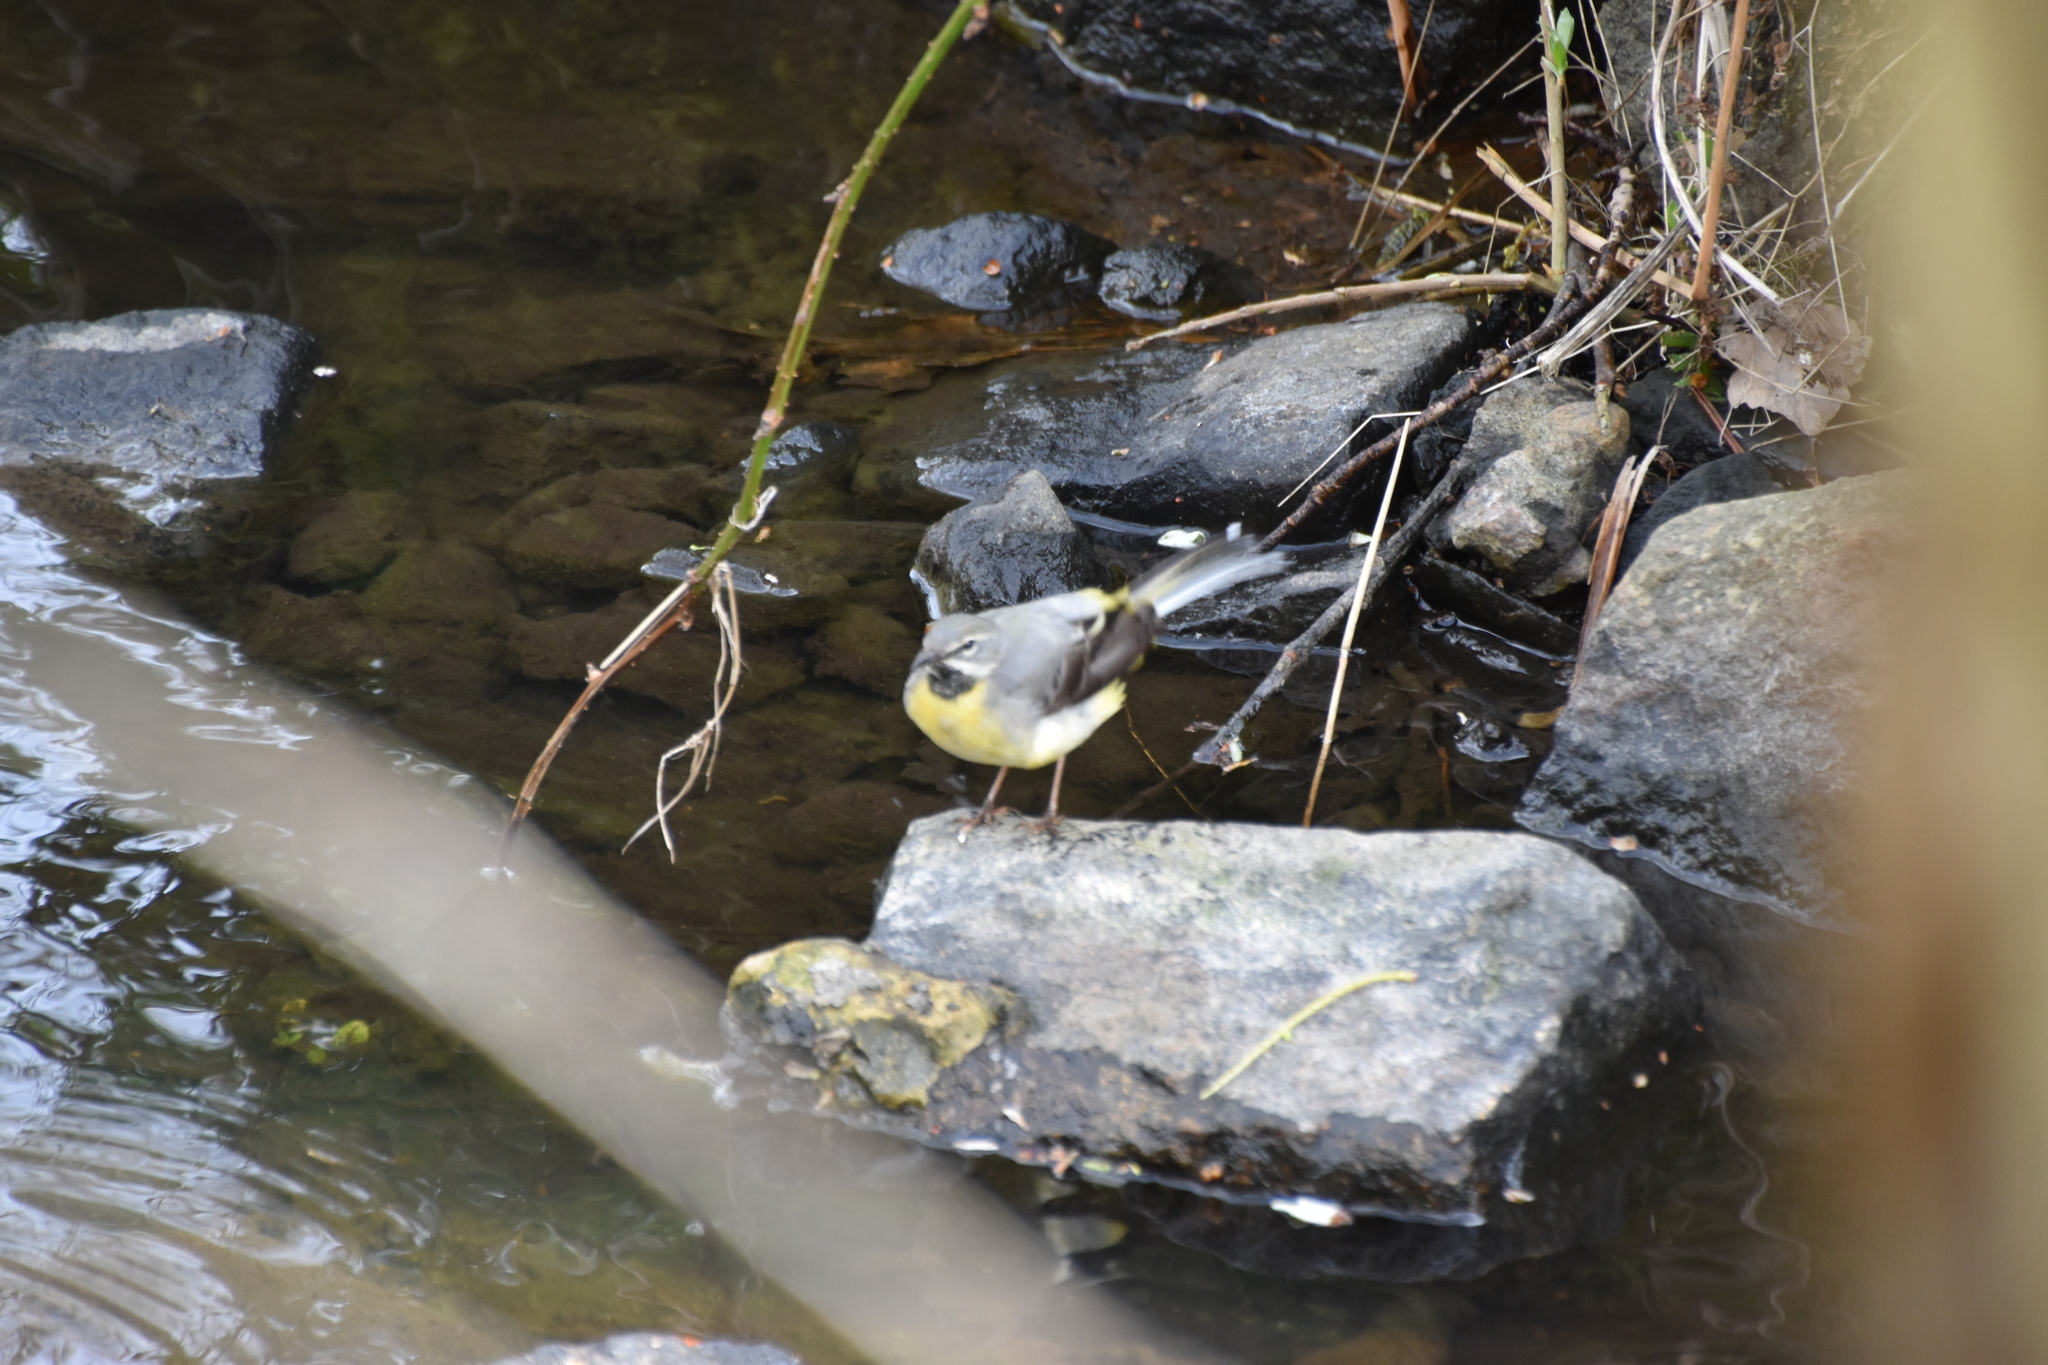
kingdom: Animalia
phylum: Chordata
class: Aves
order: Passeriformes
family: Motacillidae
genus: Motacilla
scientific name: Motacilla cinerea
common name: Grey wagtail
